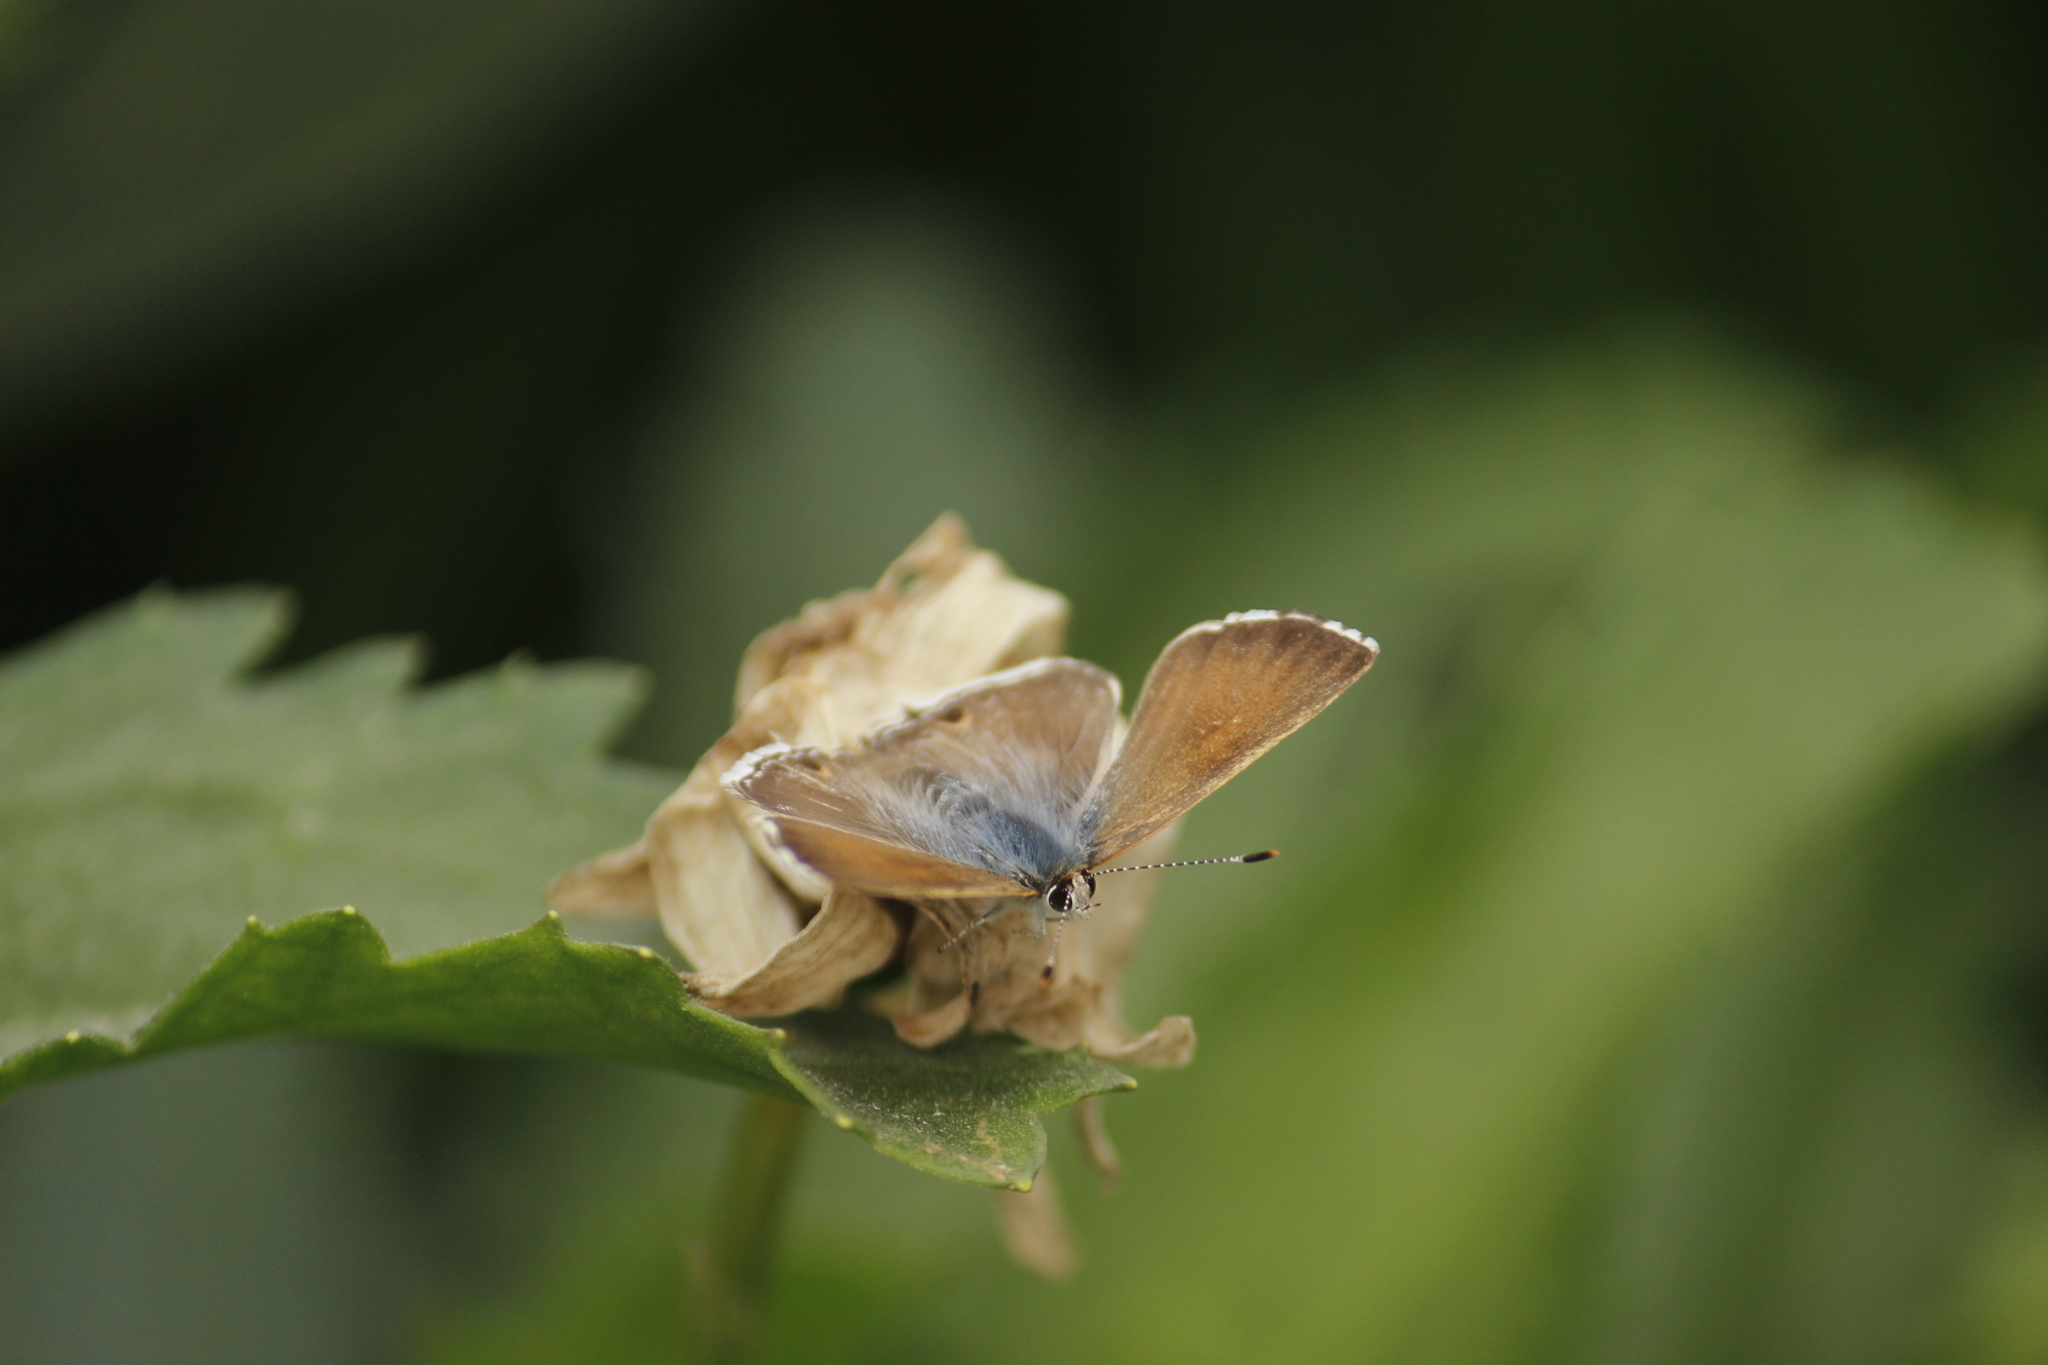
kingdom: Animalia
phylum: Arthropoda
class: Insecta
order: Lepidoptera
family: Lycaenidae
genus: Strymon
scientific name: Strymon
